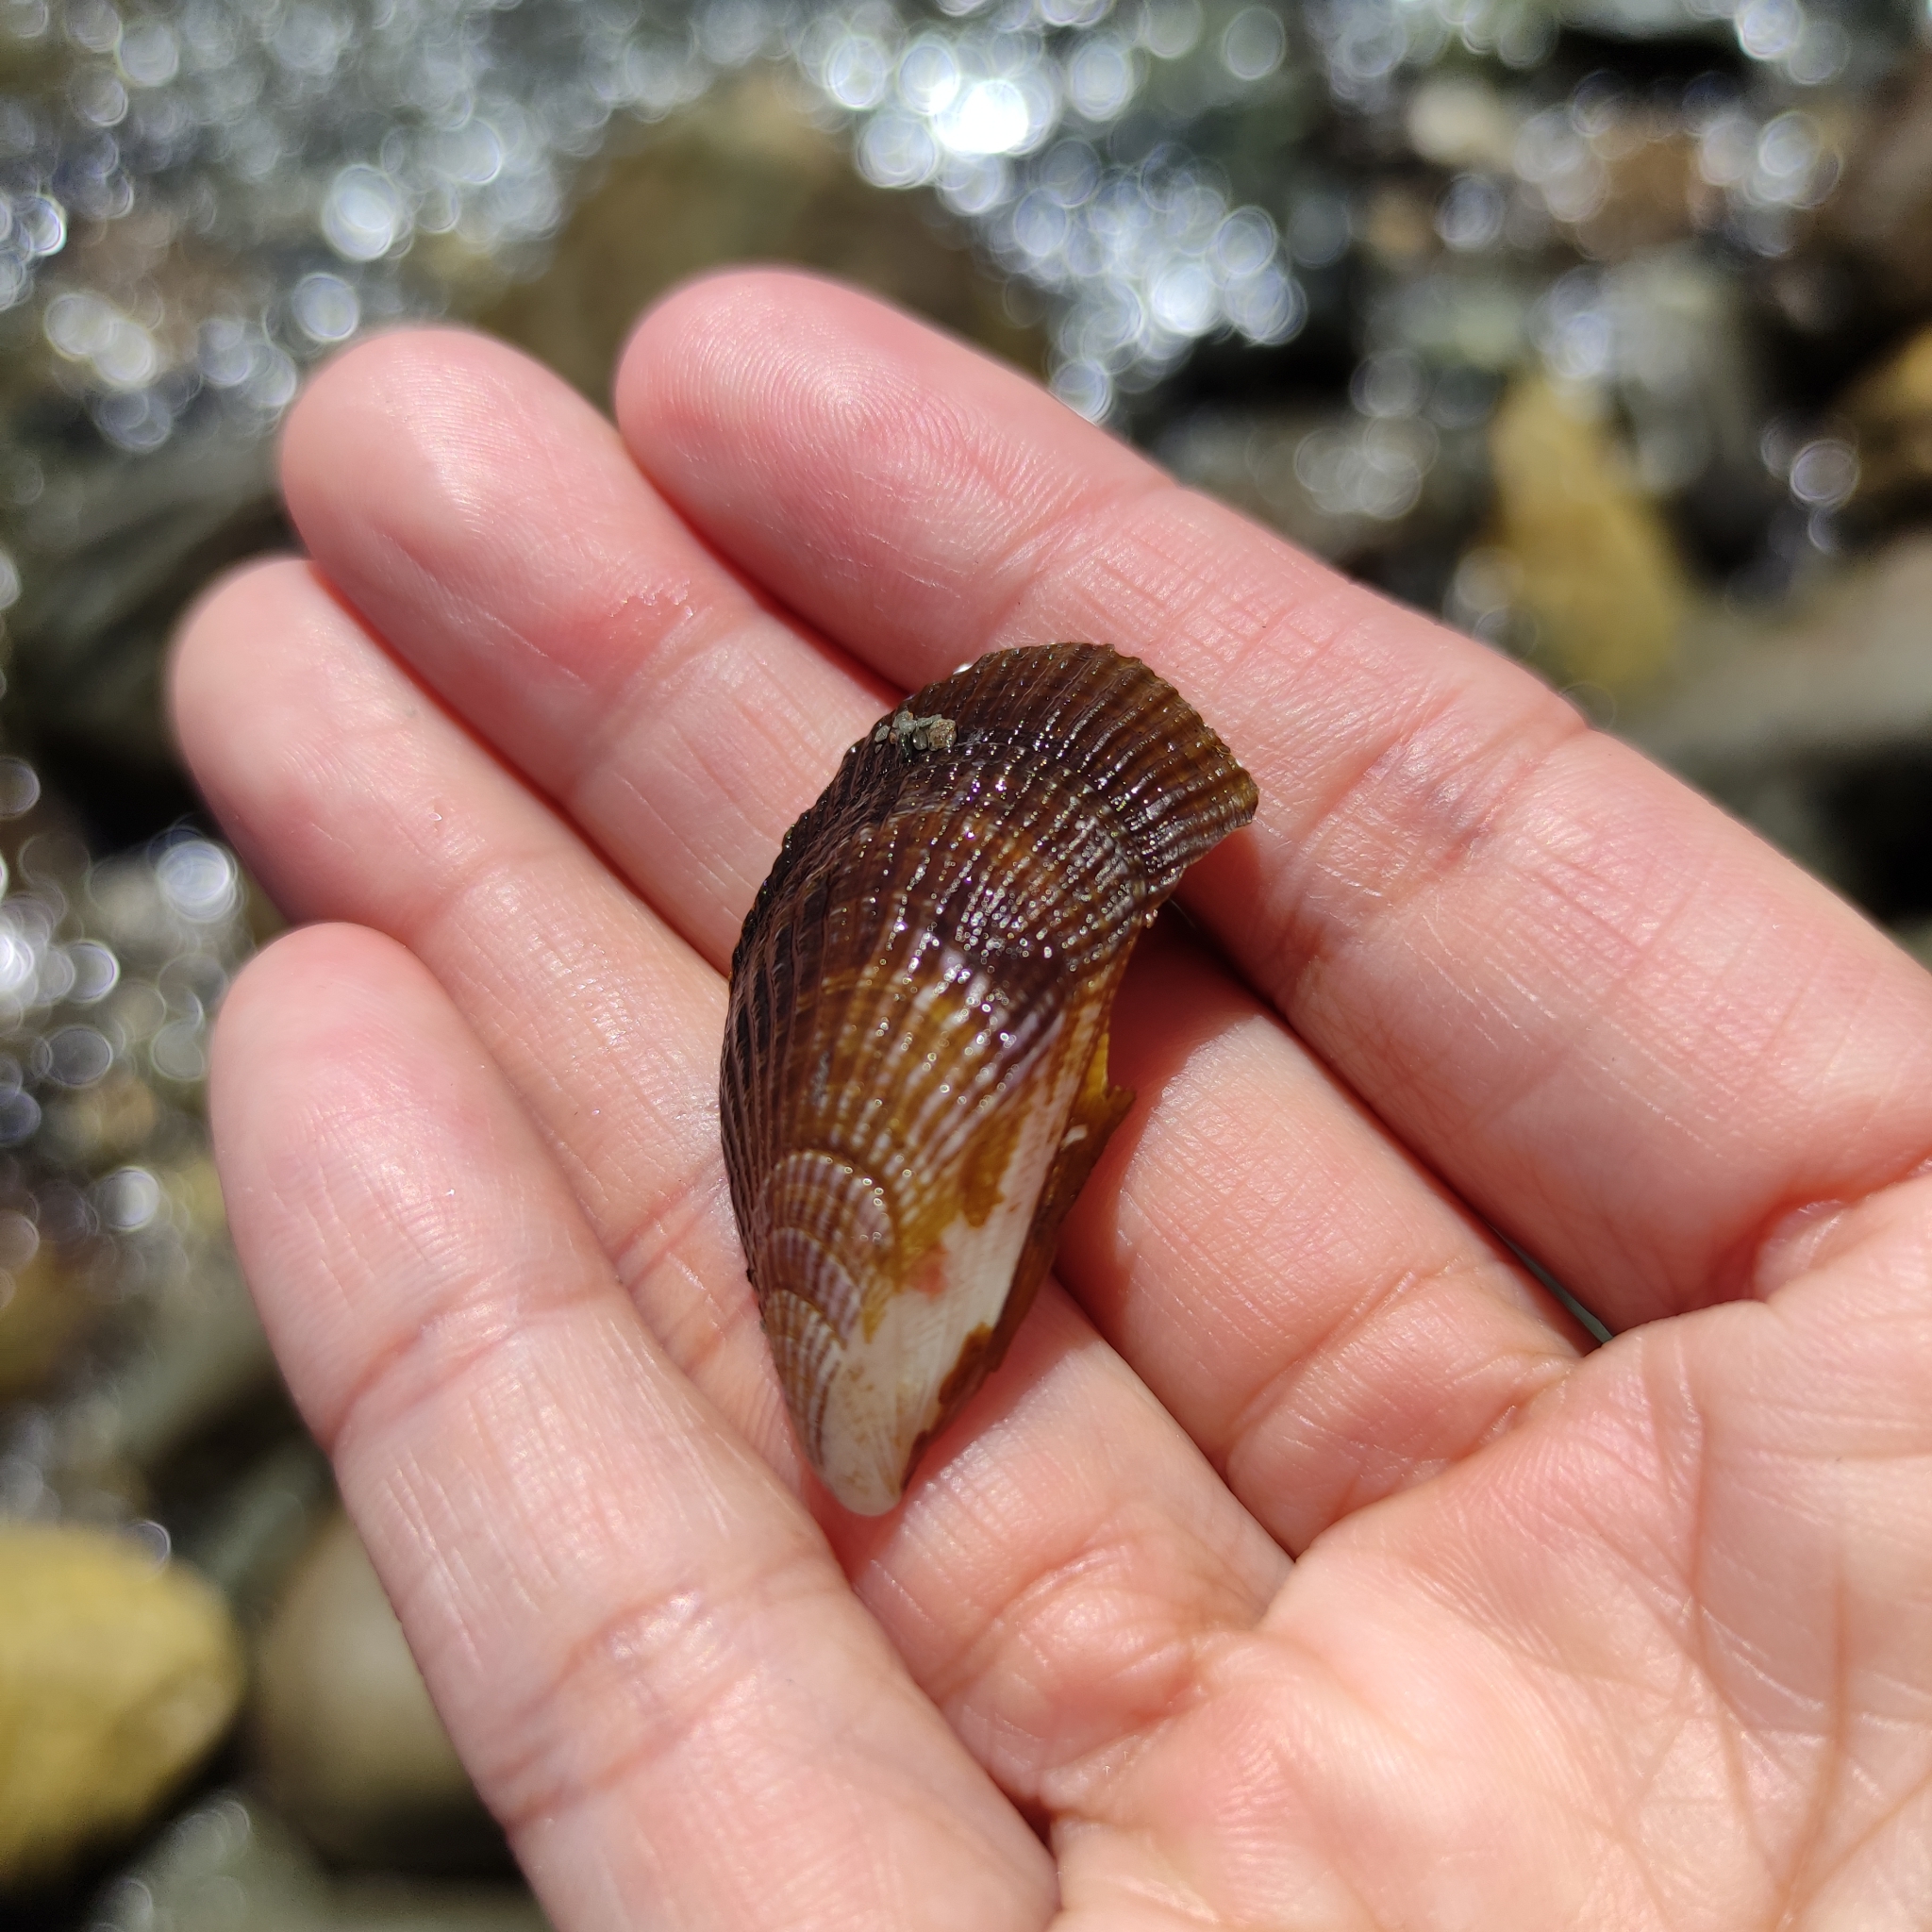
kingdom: Animalia
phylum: Mollusca
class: Bivalvia
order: Mytilida
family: Mytilidae
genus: Aulacomya
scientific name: Aulacomya maoriana
